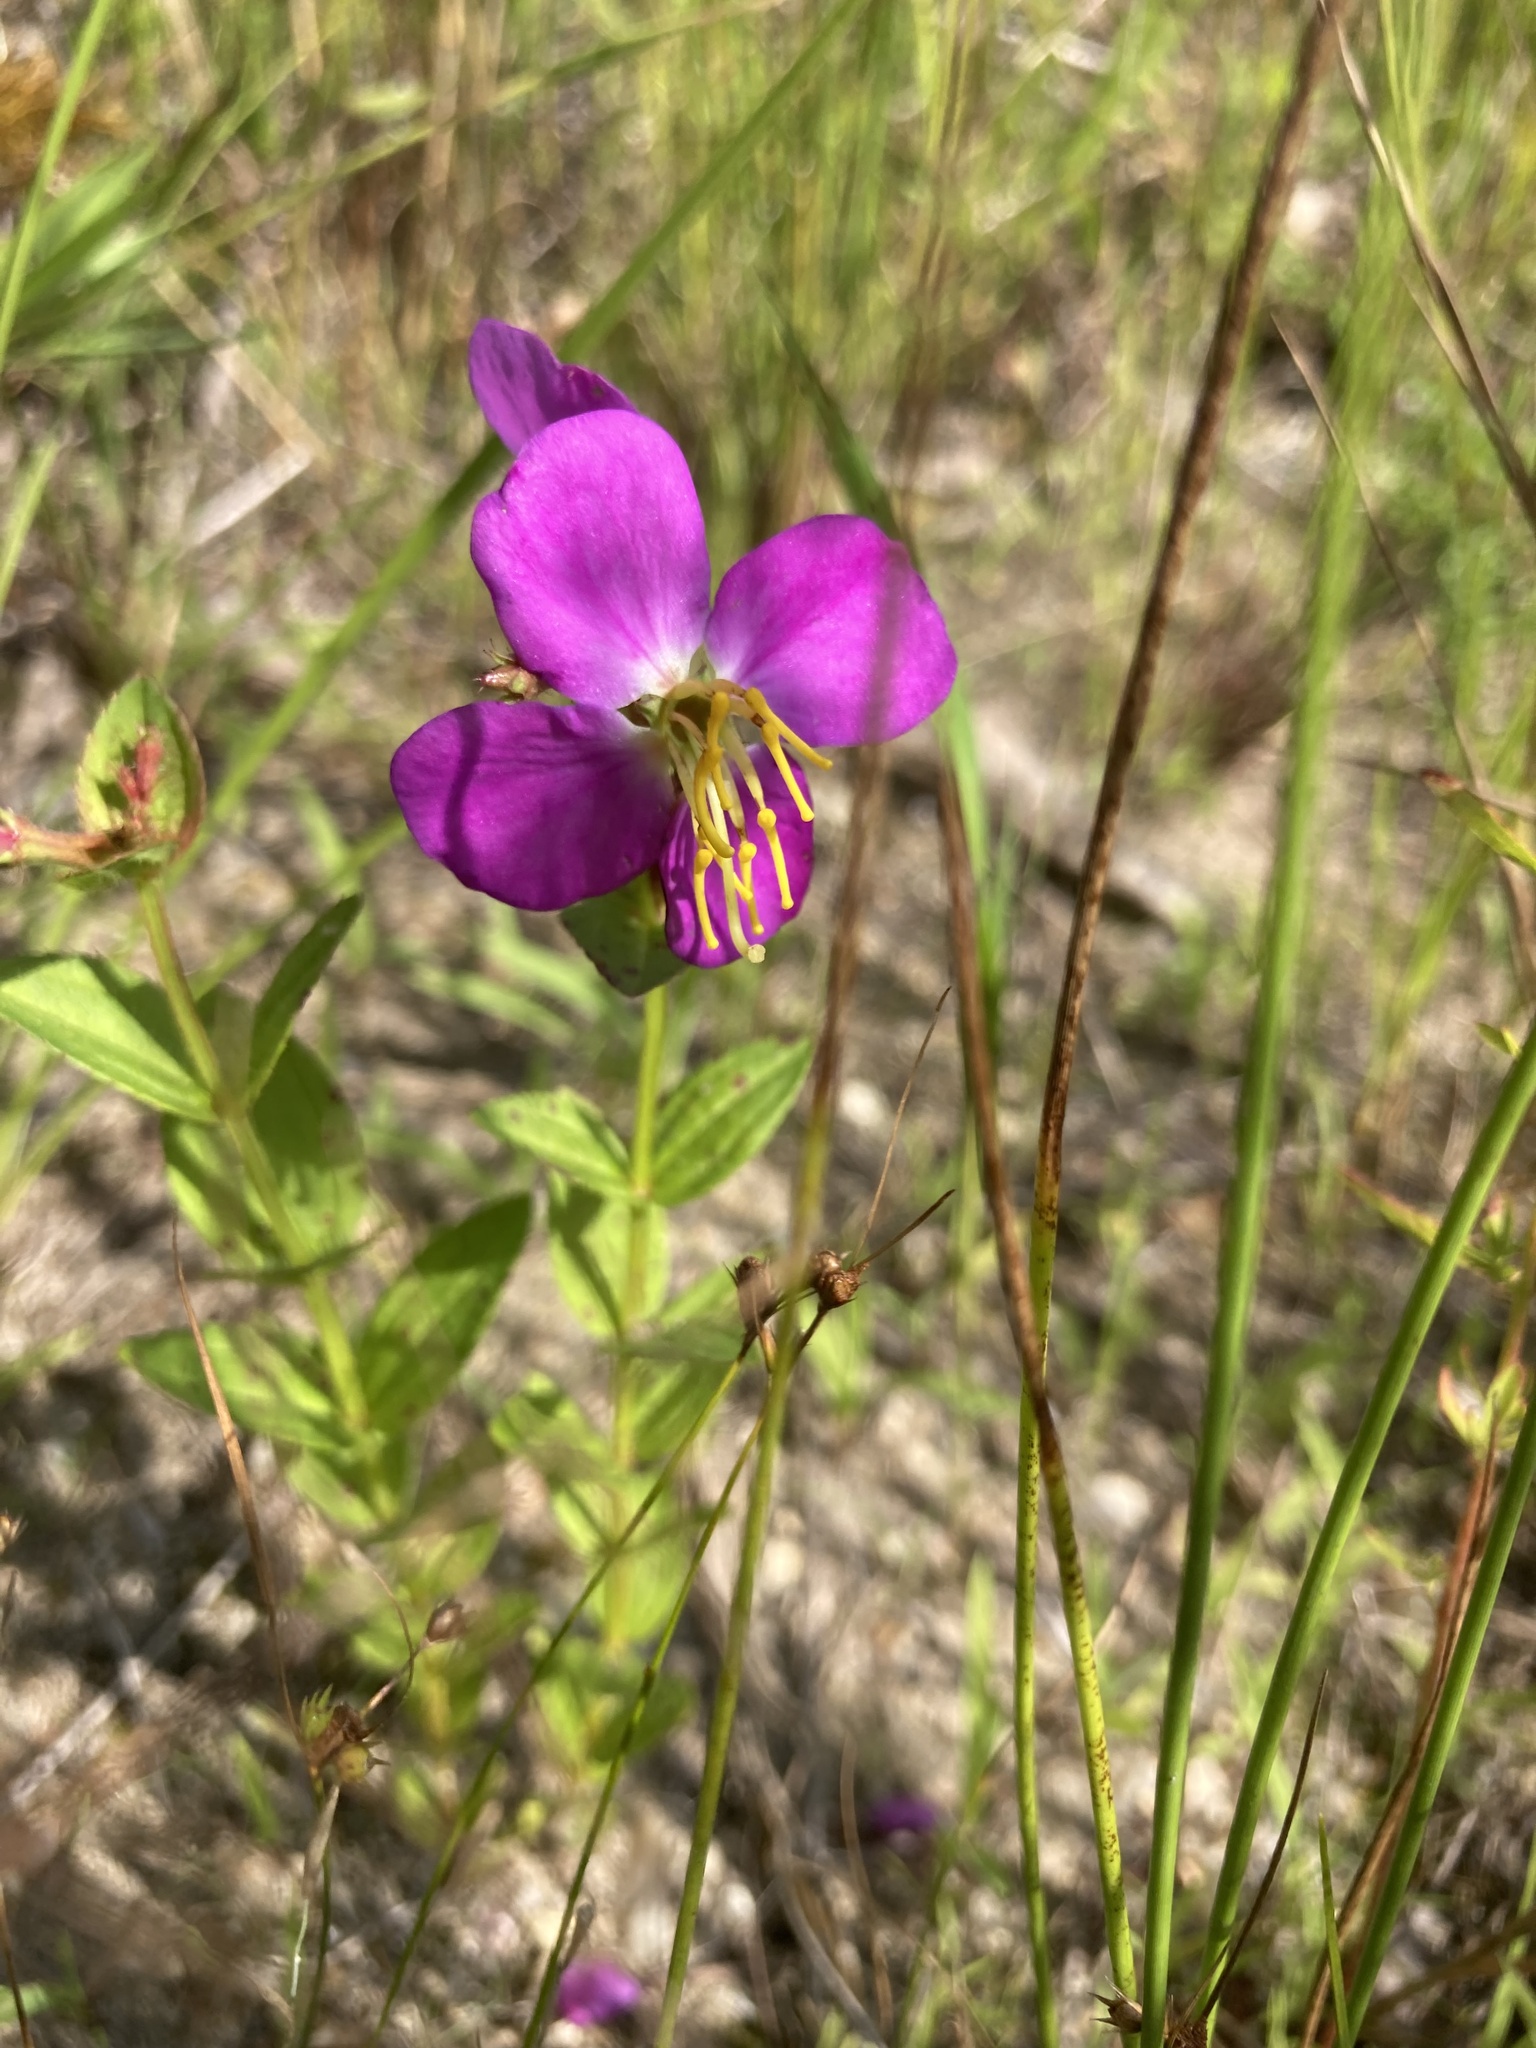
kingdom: Plantae
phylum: Tracheophyta
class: Magnoliopsida
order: Myrtales
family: Melastomataceae
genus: Rhexia
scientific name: Rhexia virginica
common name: Common meadow beauty
